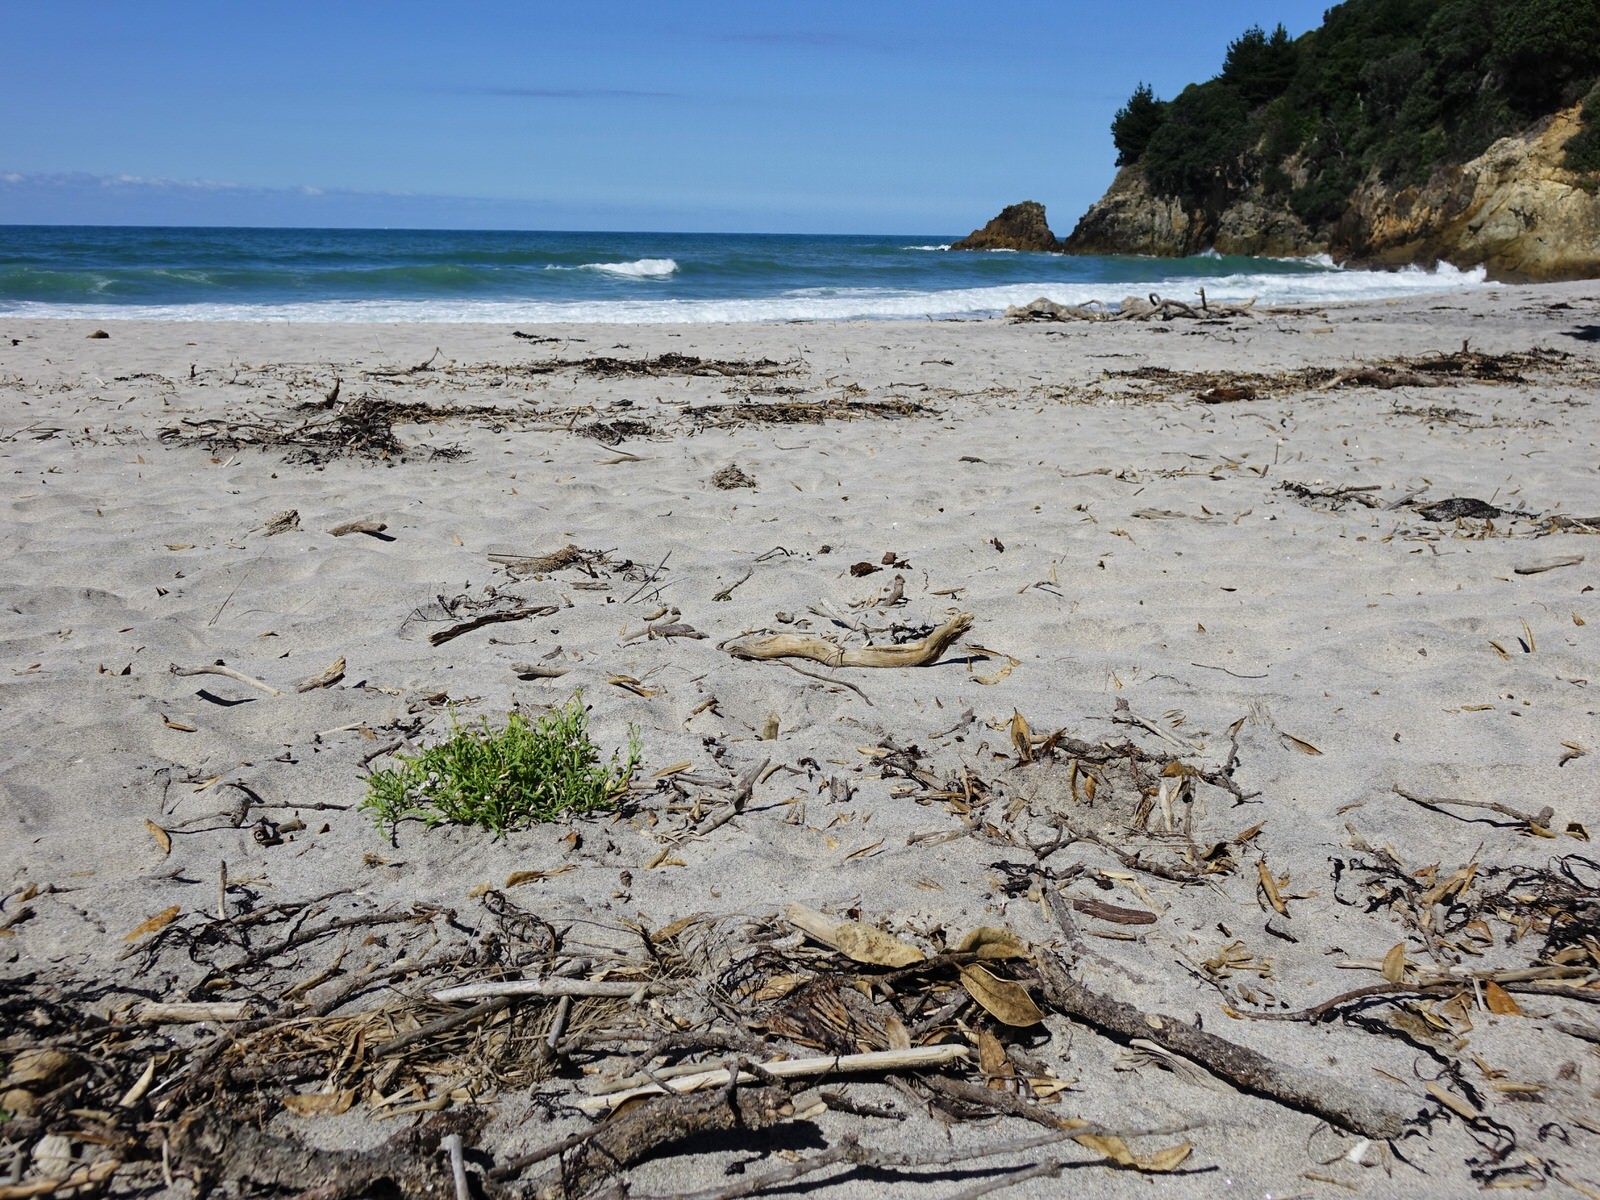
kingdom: Plantae
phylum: Tracheophyta
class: Magnoliopsida
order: Brassicales
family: Brassicaceae
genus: Cakile
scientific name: Cakile edentula
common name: American sea rocket
